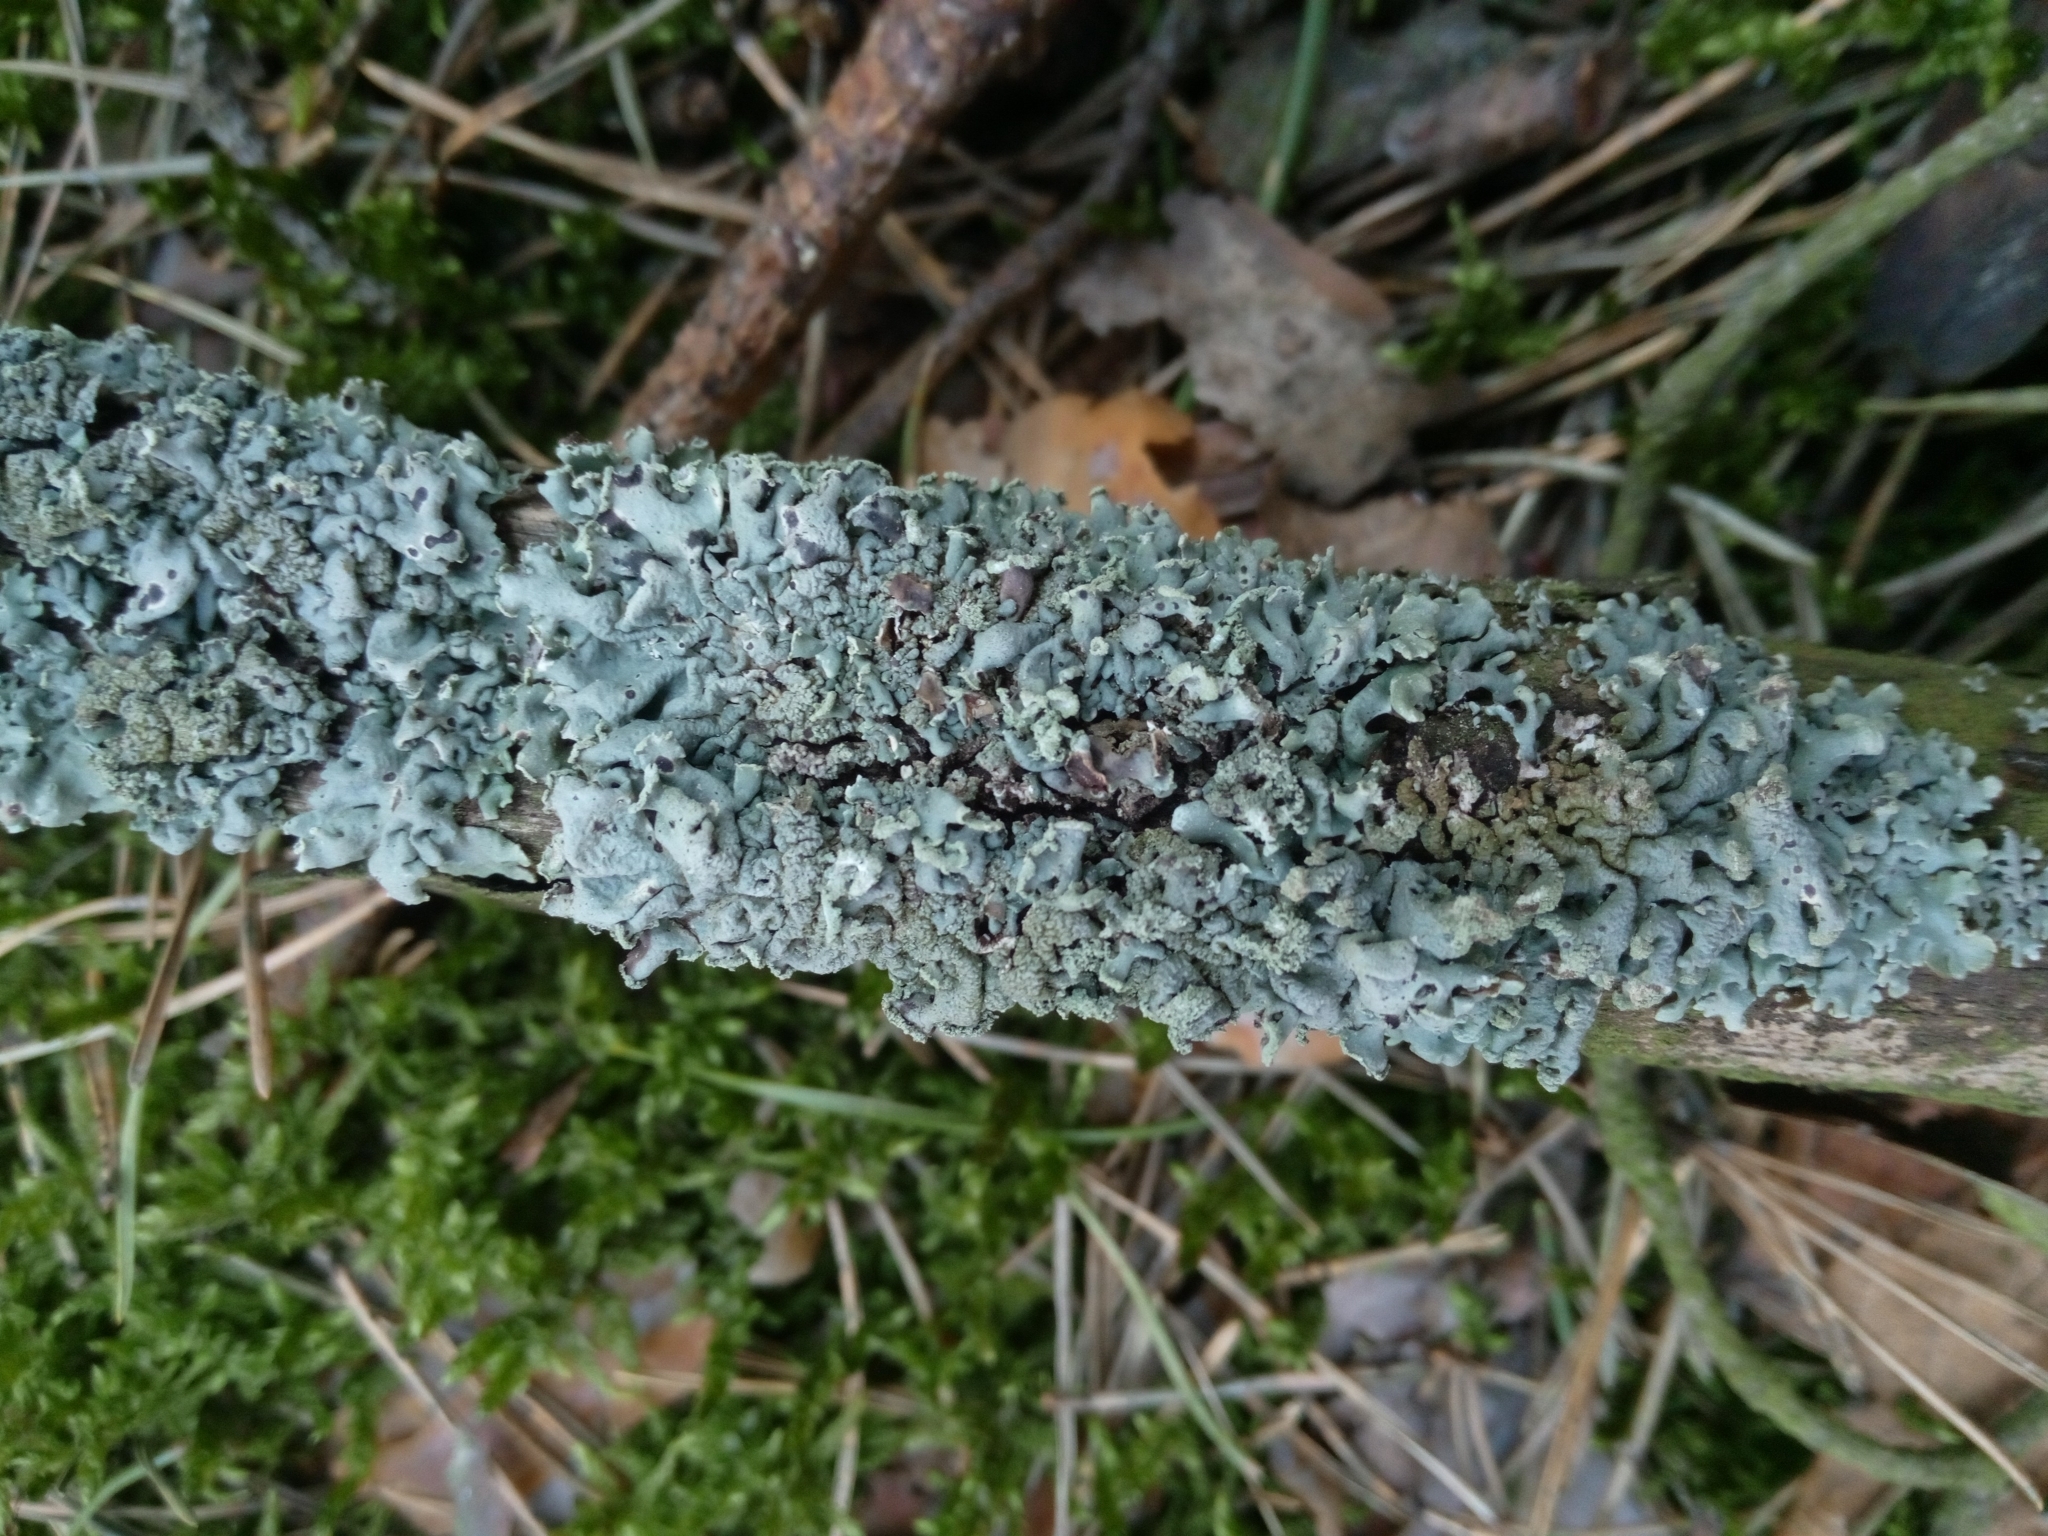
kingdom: Fungi
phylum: Ascomycota
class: Lecanoromycetes
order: Lecanorales
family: Parmeliaceae
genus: Hypogymnia
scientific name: Hypogymnia physodes
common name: Dark crottle
